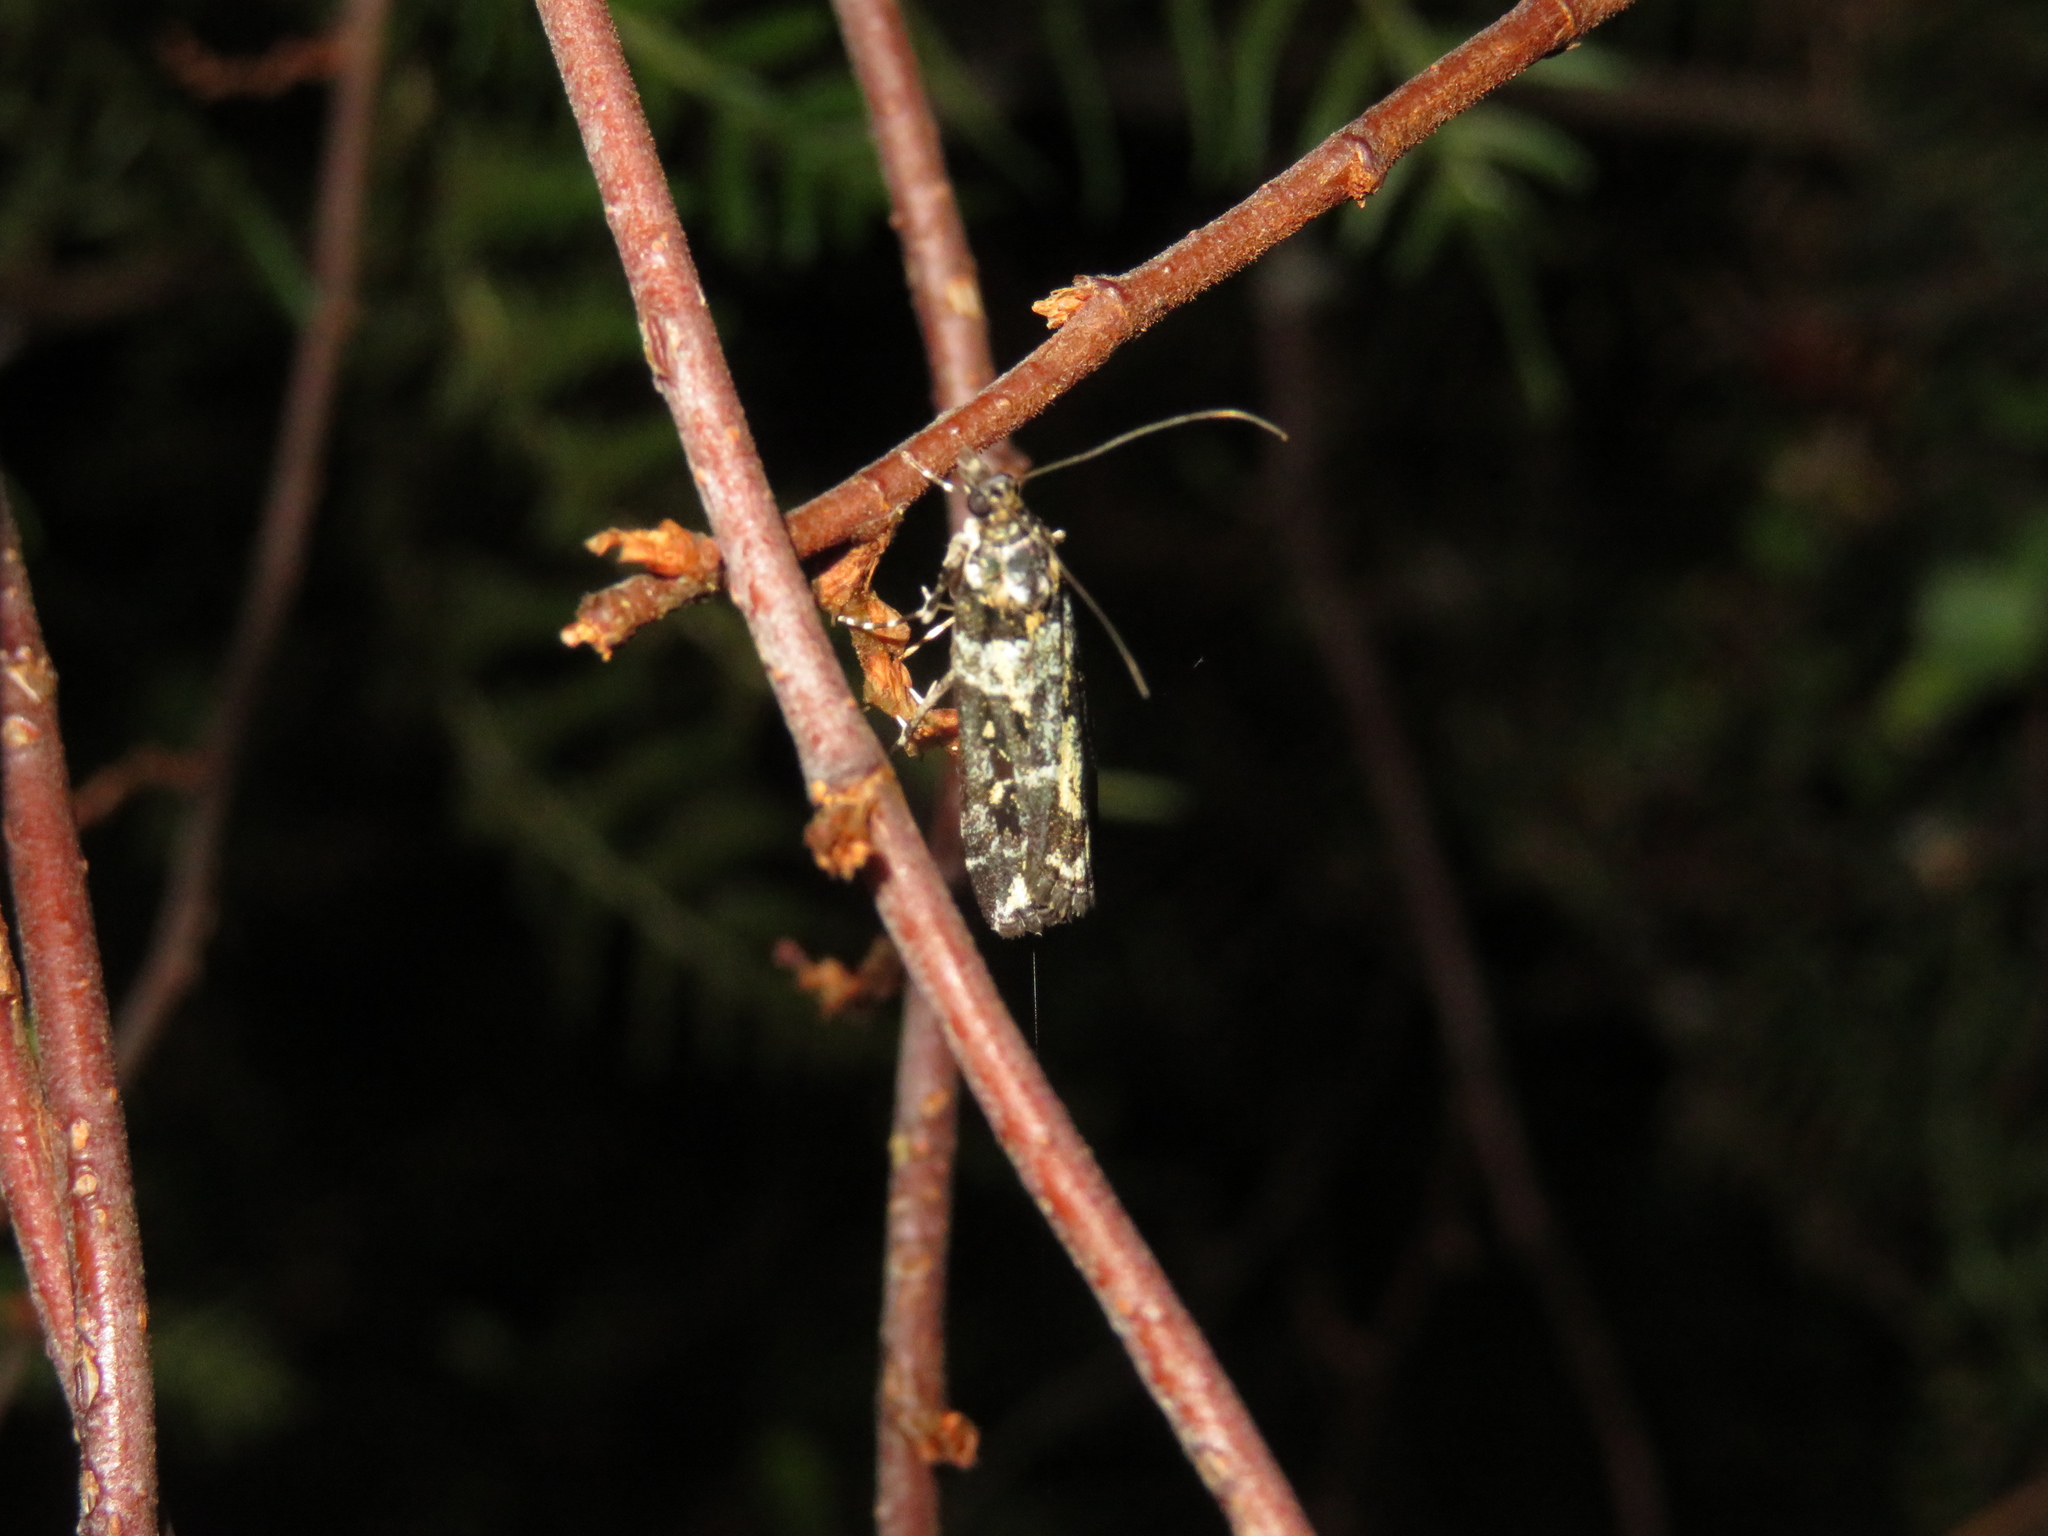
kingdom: Animalia
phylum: Arthropoda
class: Insecta
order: Lepidoptera
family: Crambidae
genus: Eudonia
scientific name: Eudonia diphtheralis
